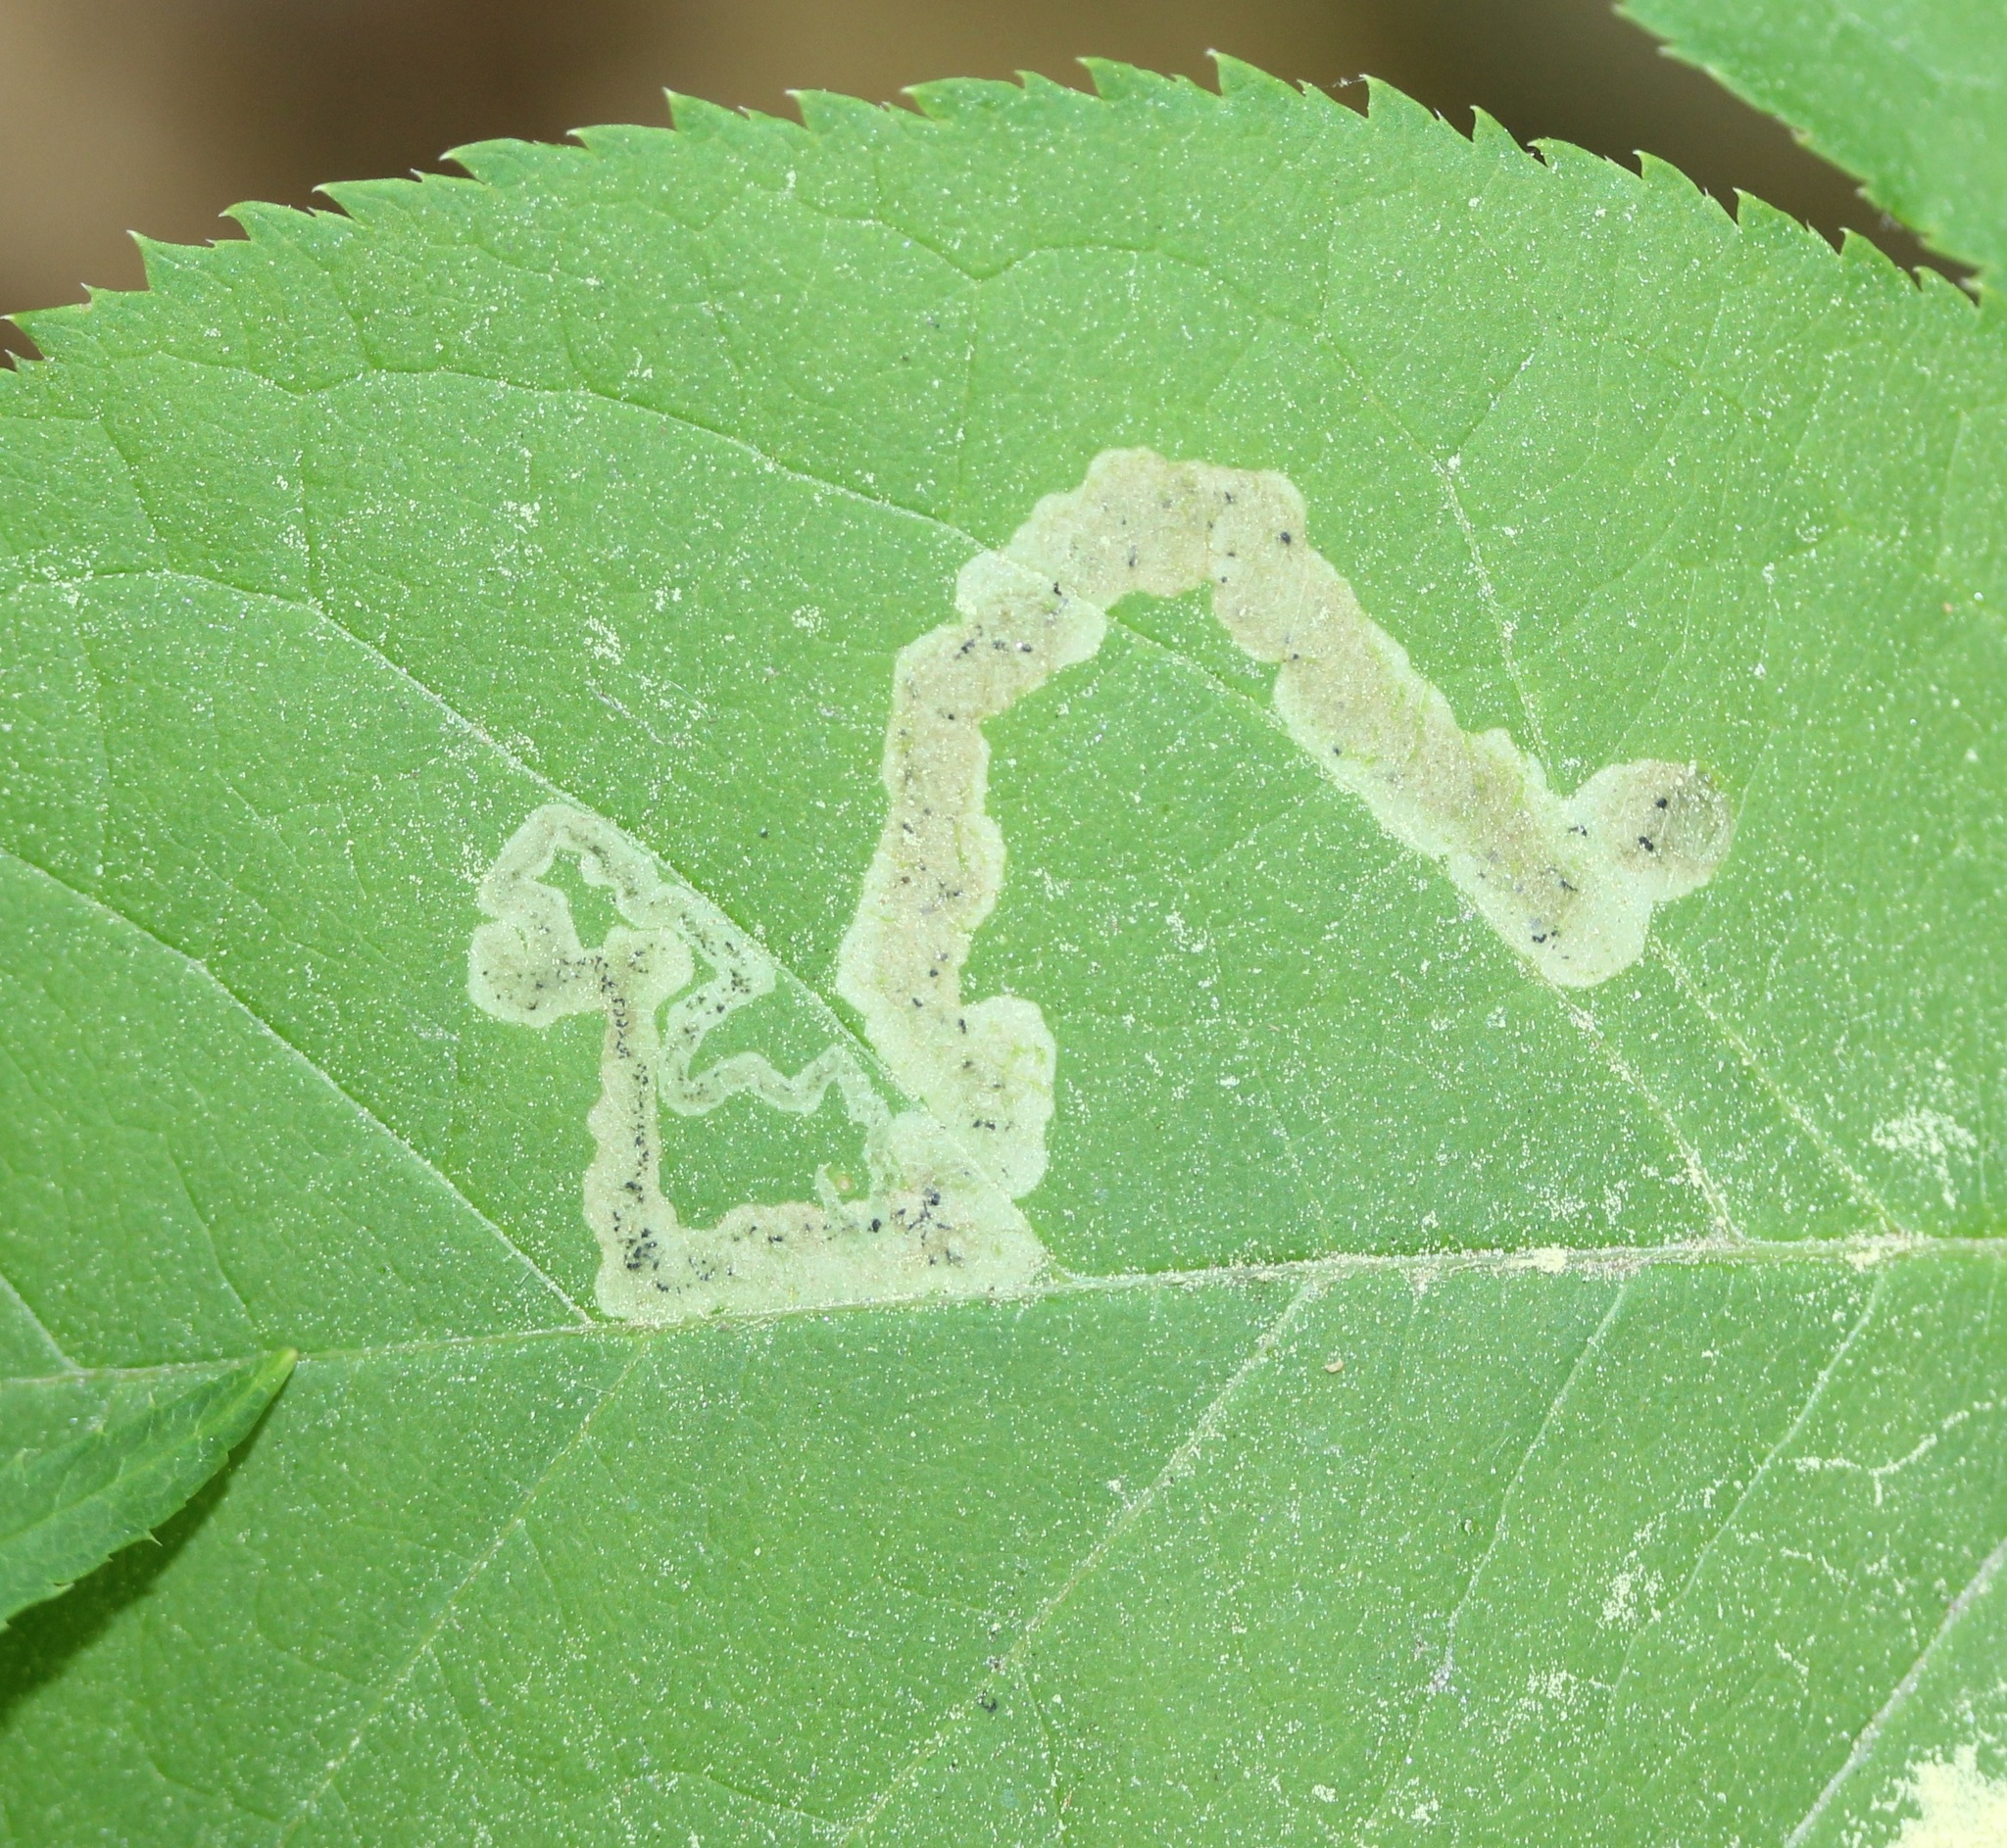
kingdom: Animalia
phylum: Arthropoda
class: Insecta
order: Diptera
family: Agromyzidae
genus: Phytomyza
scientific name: Phytomyza aralivora
